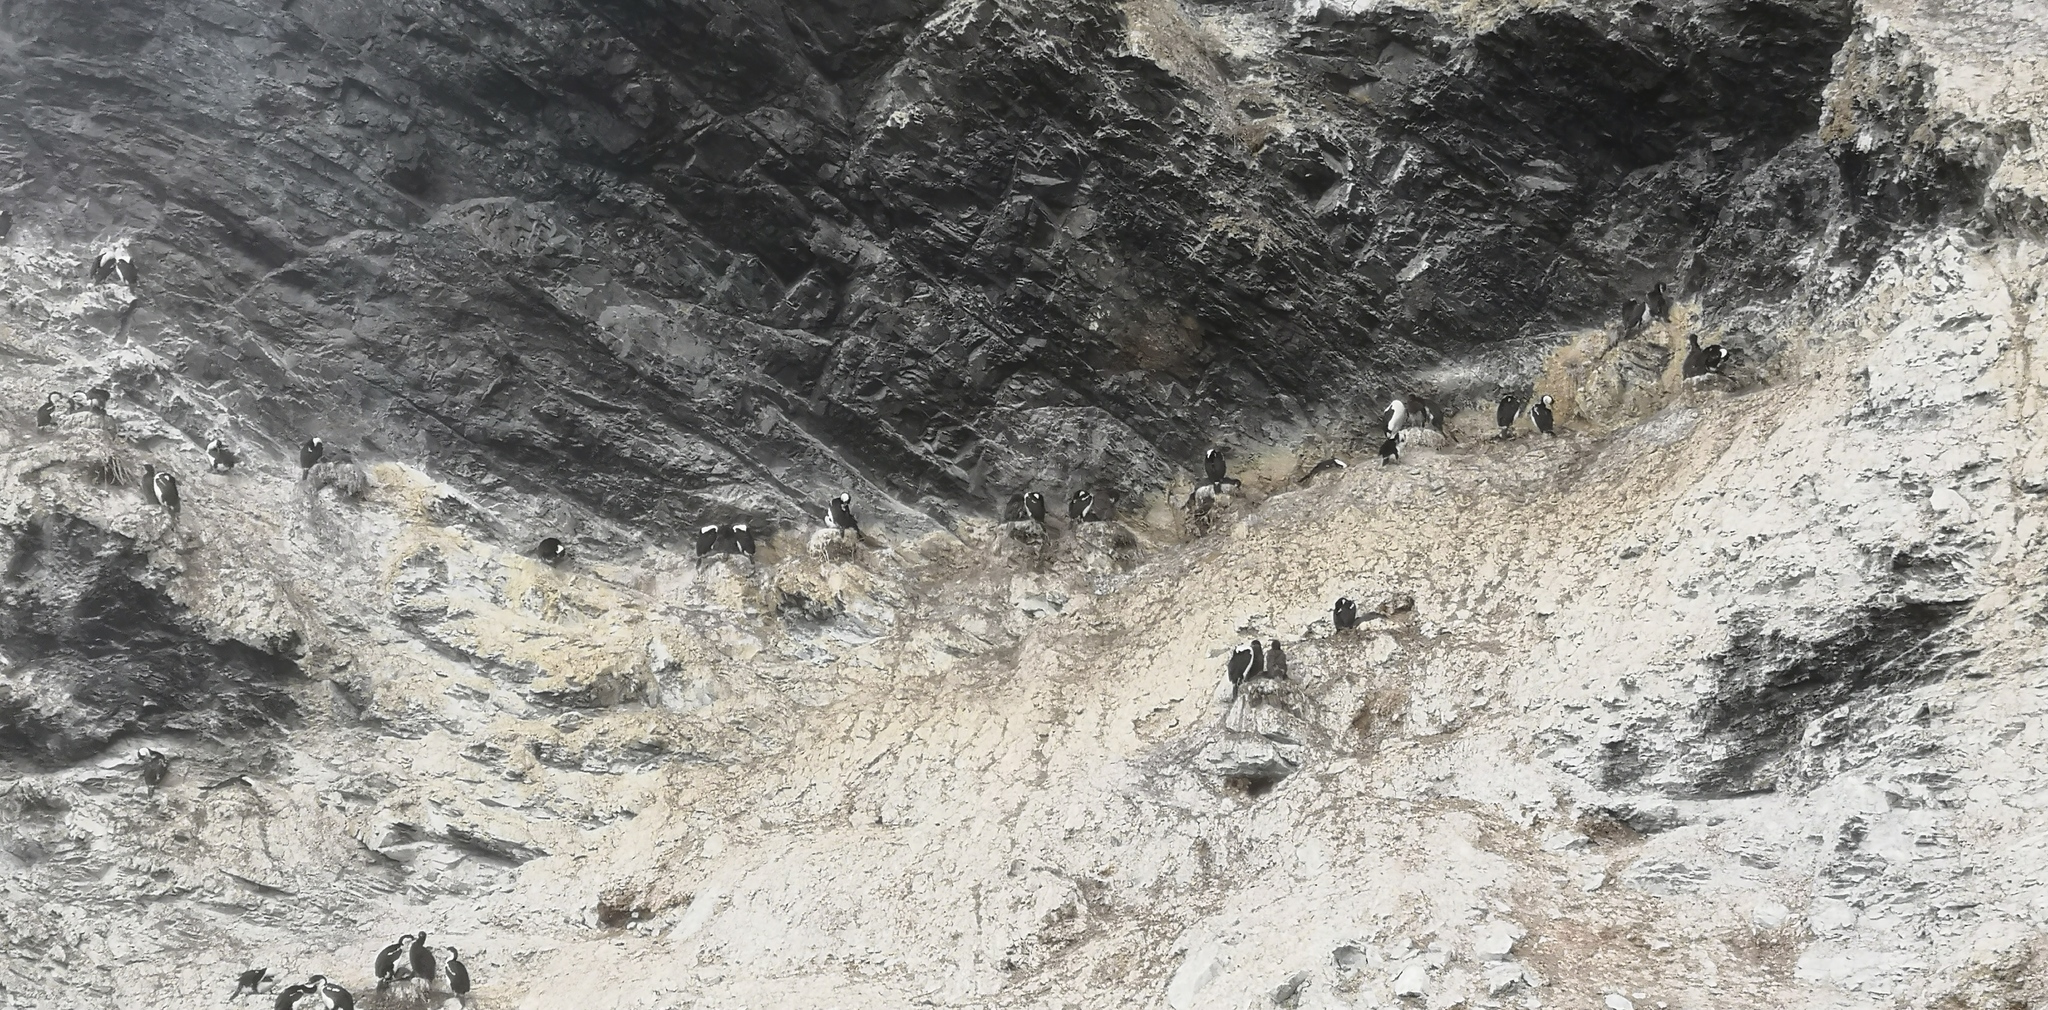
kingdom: Animalia
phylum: Chordata
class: Aves
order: Suliformes
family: Phalacrocoracidae
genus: Leucocarbo
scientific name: Leucocarbo atriceps
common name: Imperial shag
